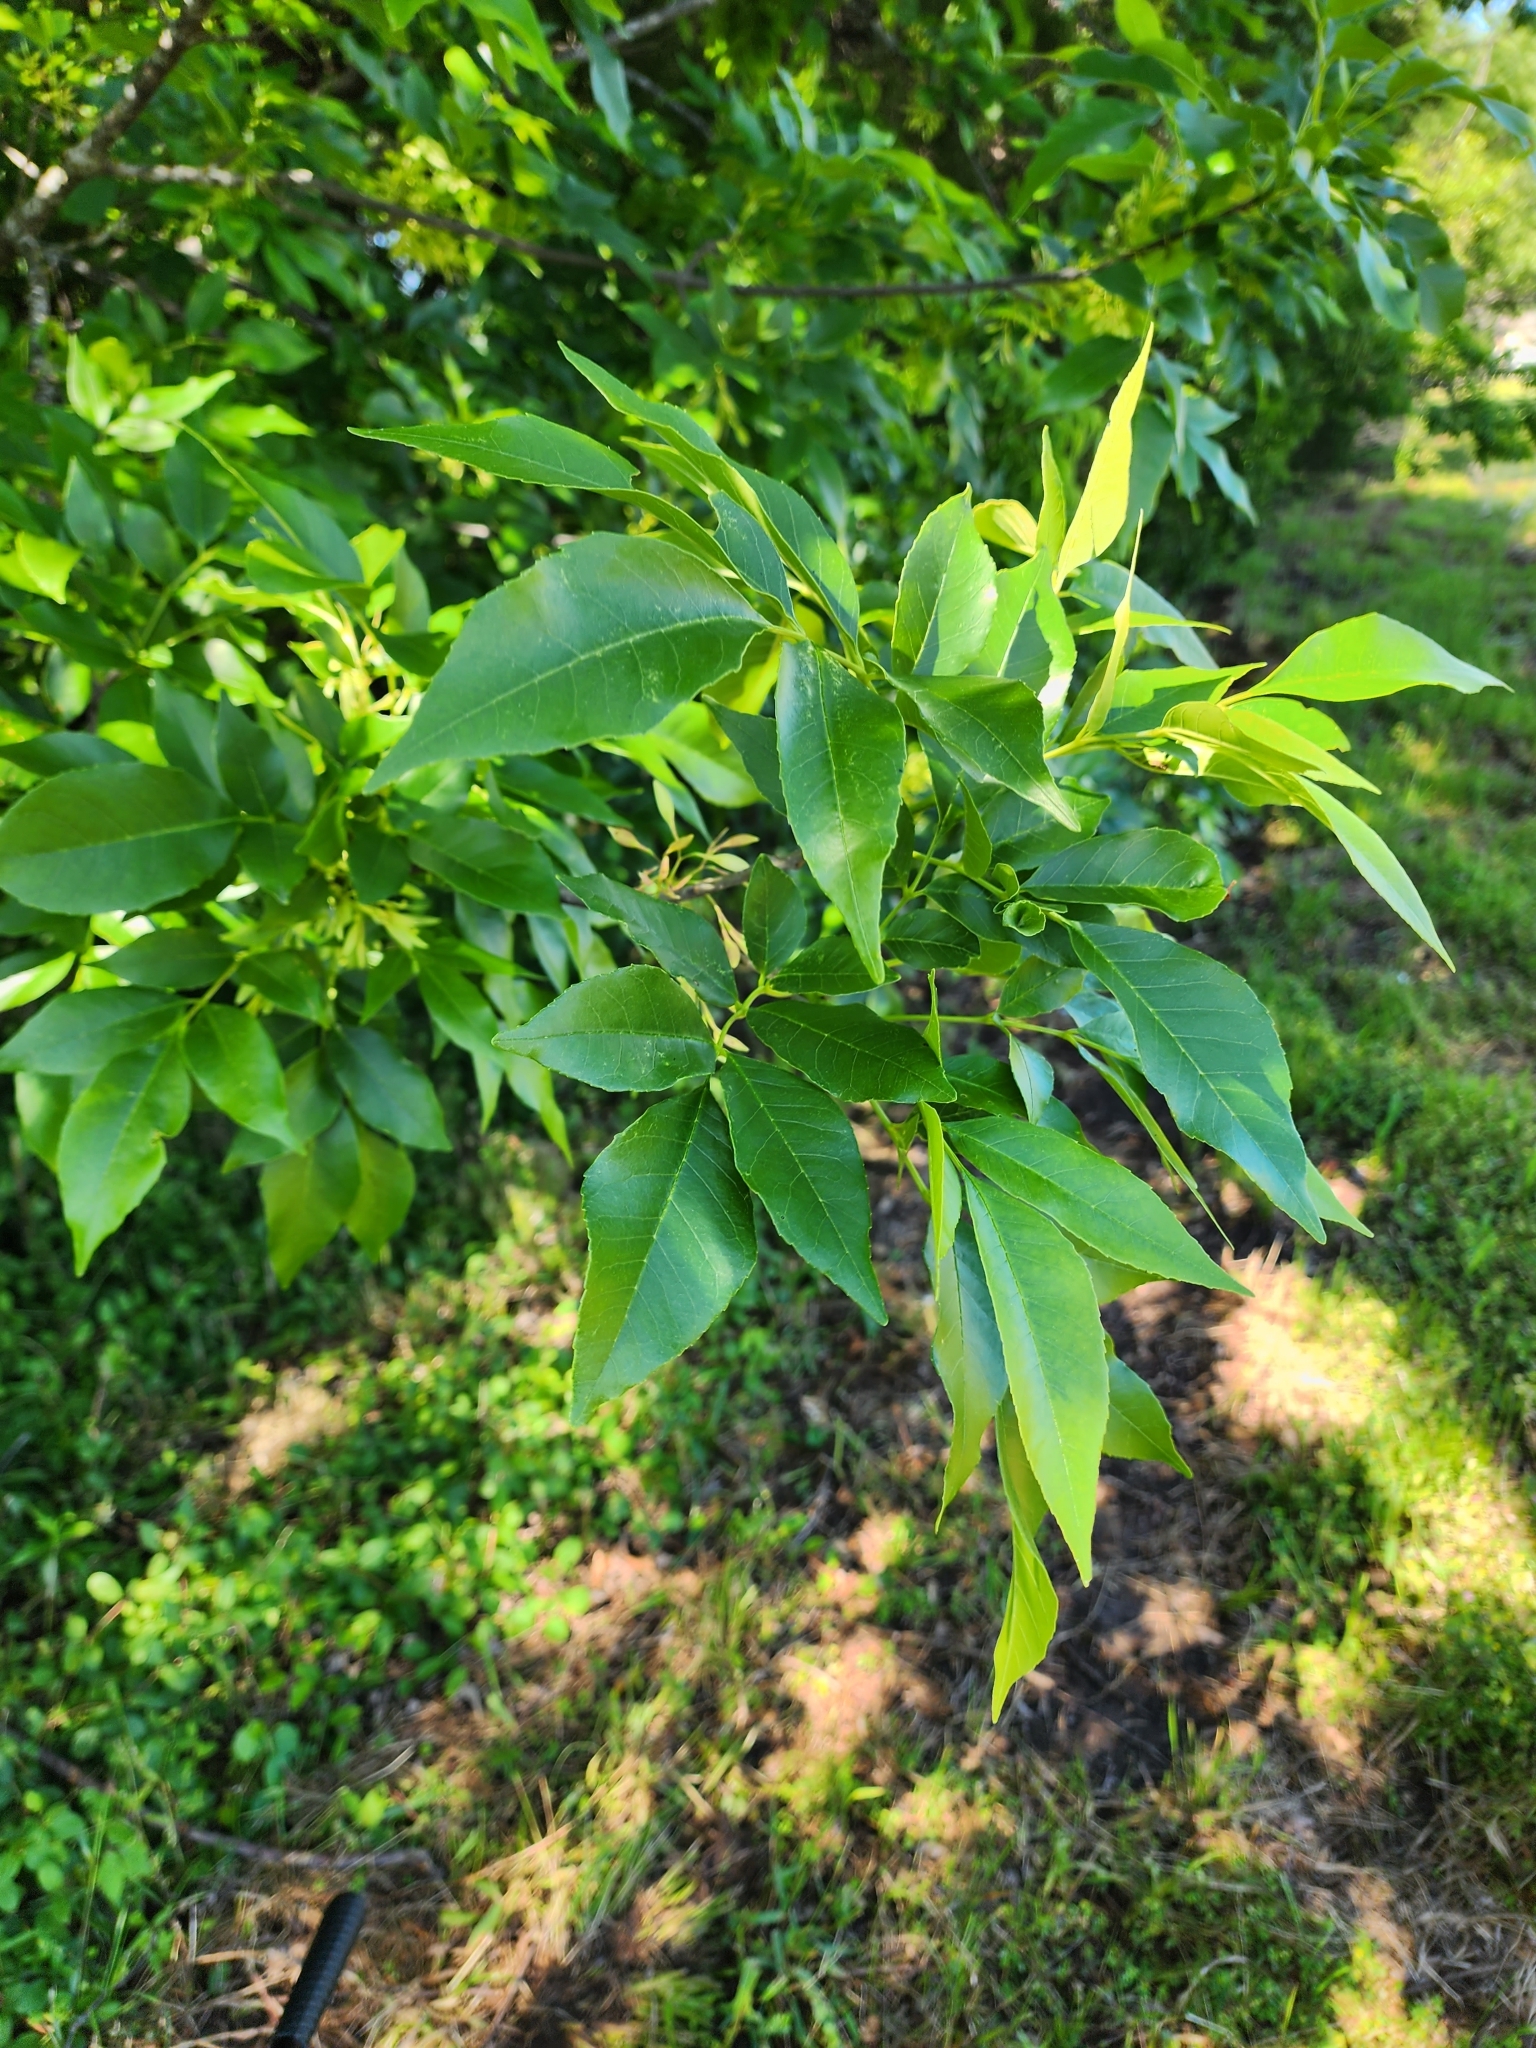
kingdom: Plantae
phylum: Tracheophyta
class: Magnoliopsida
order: Lamiales
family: Oleaceae
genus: Fraxinus
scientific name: Fraxinus pennsylvanica
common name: Green ash
